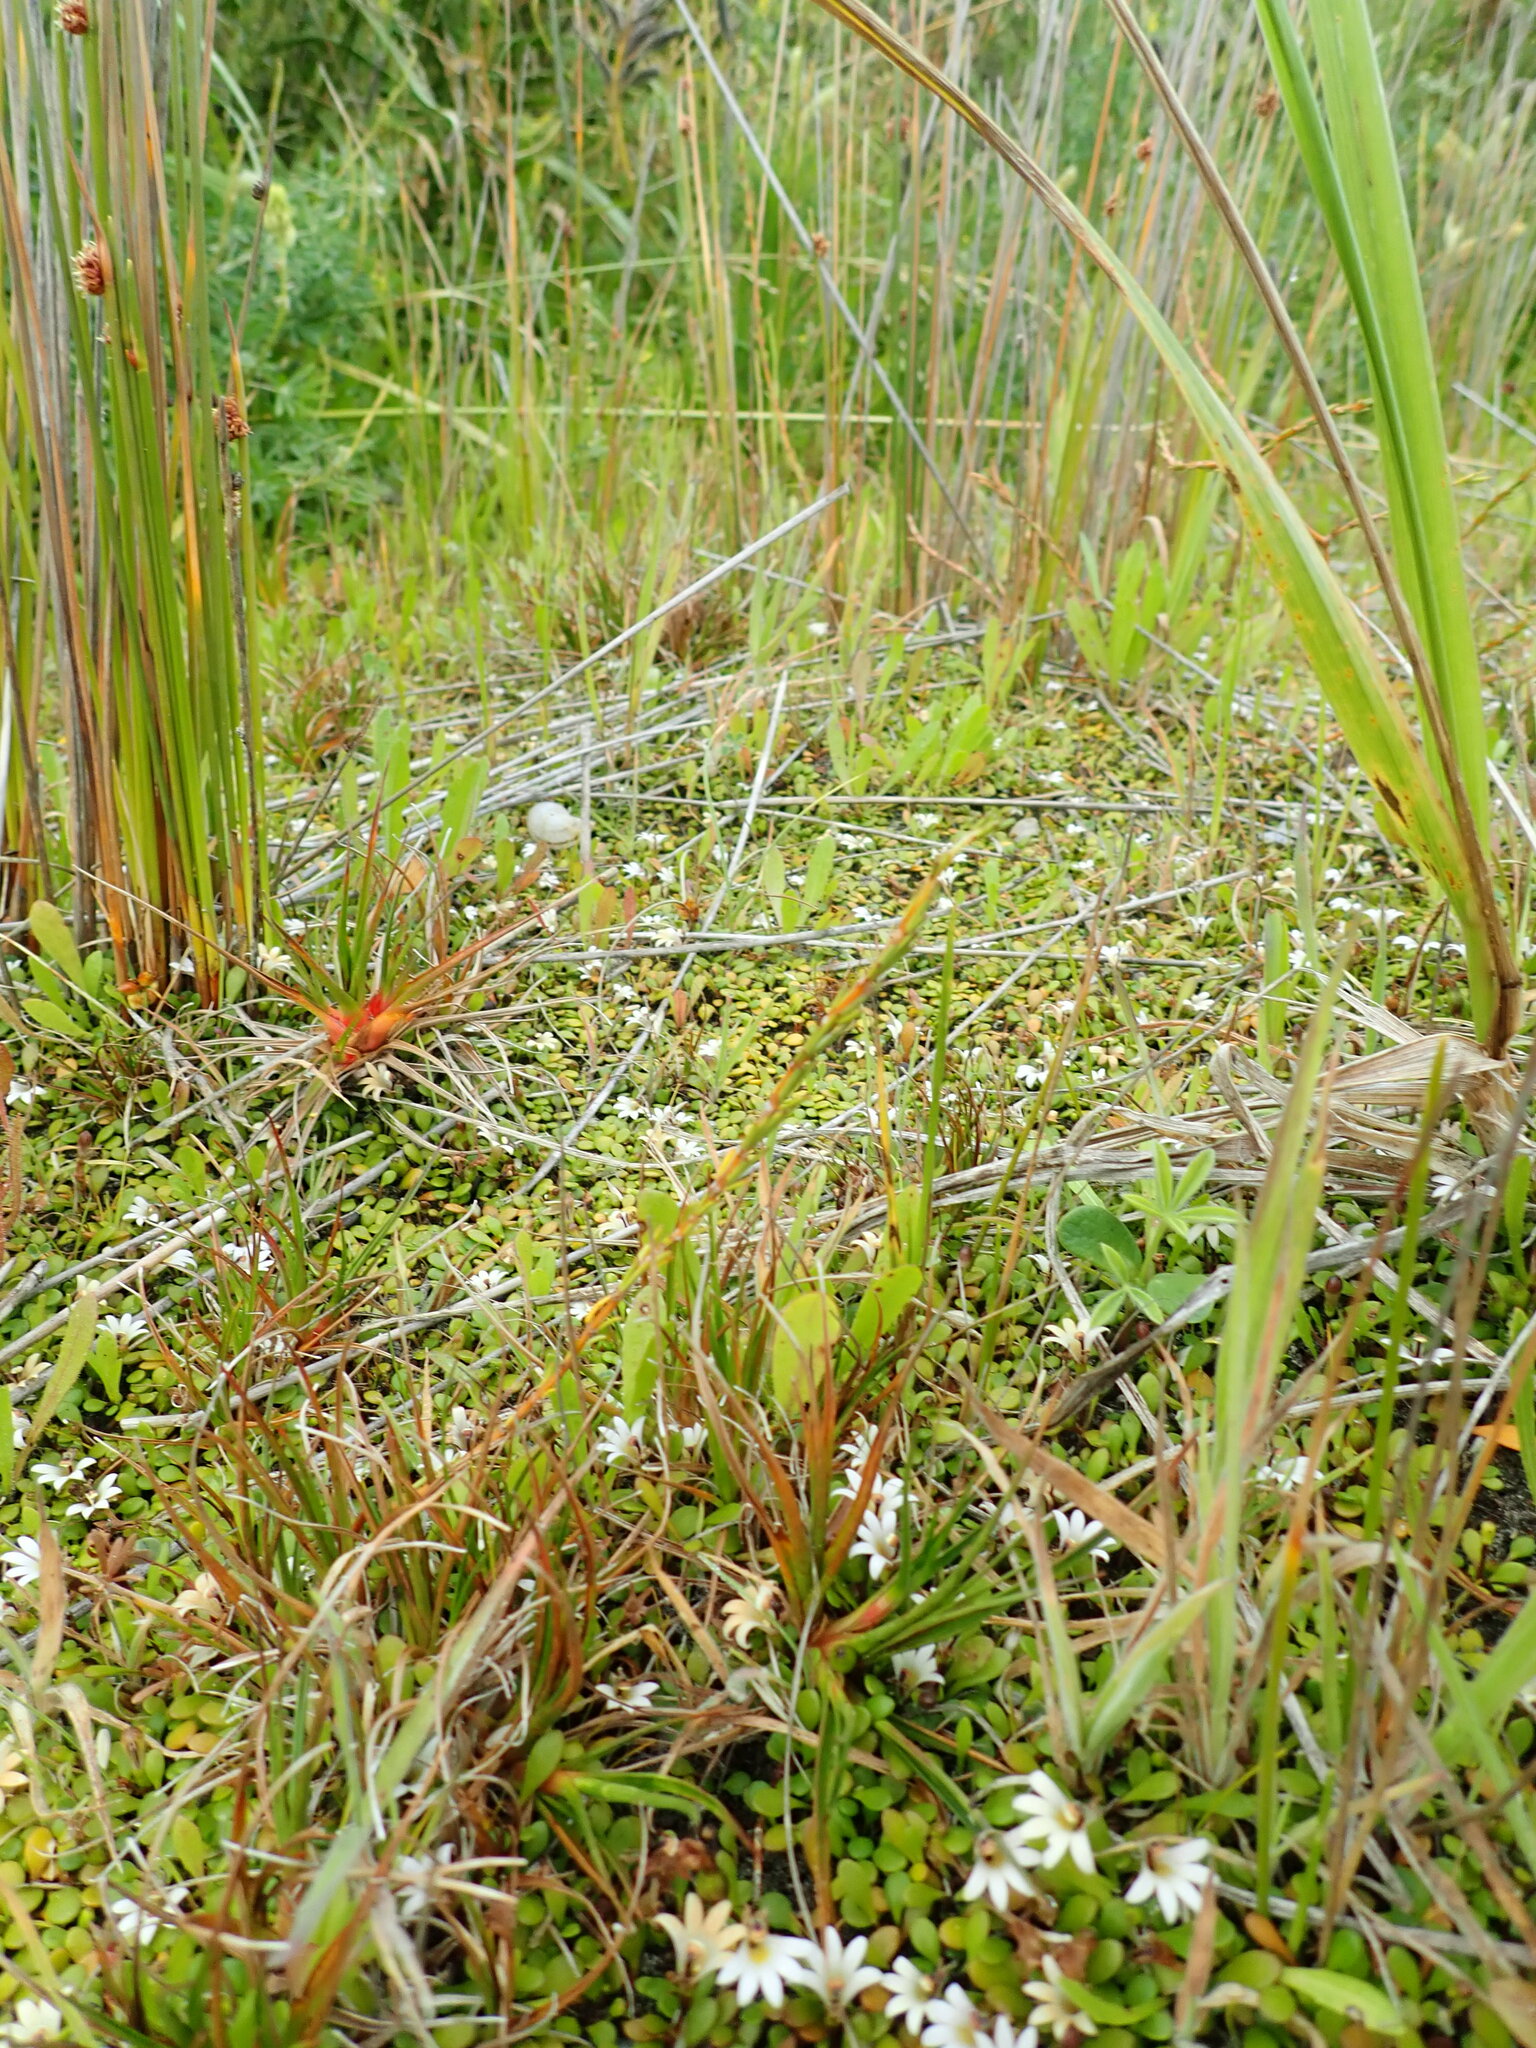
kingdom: Plantae
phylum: Tracheophyta
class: Magnoliopsida
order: Gentianales
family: Rubiaceae
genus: Coprosma
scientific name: Coprosma acerosa
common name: Sand coprosma
